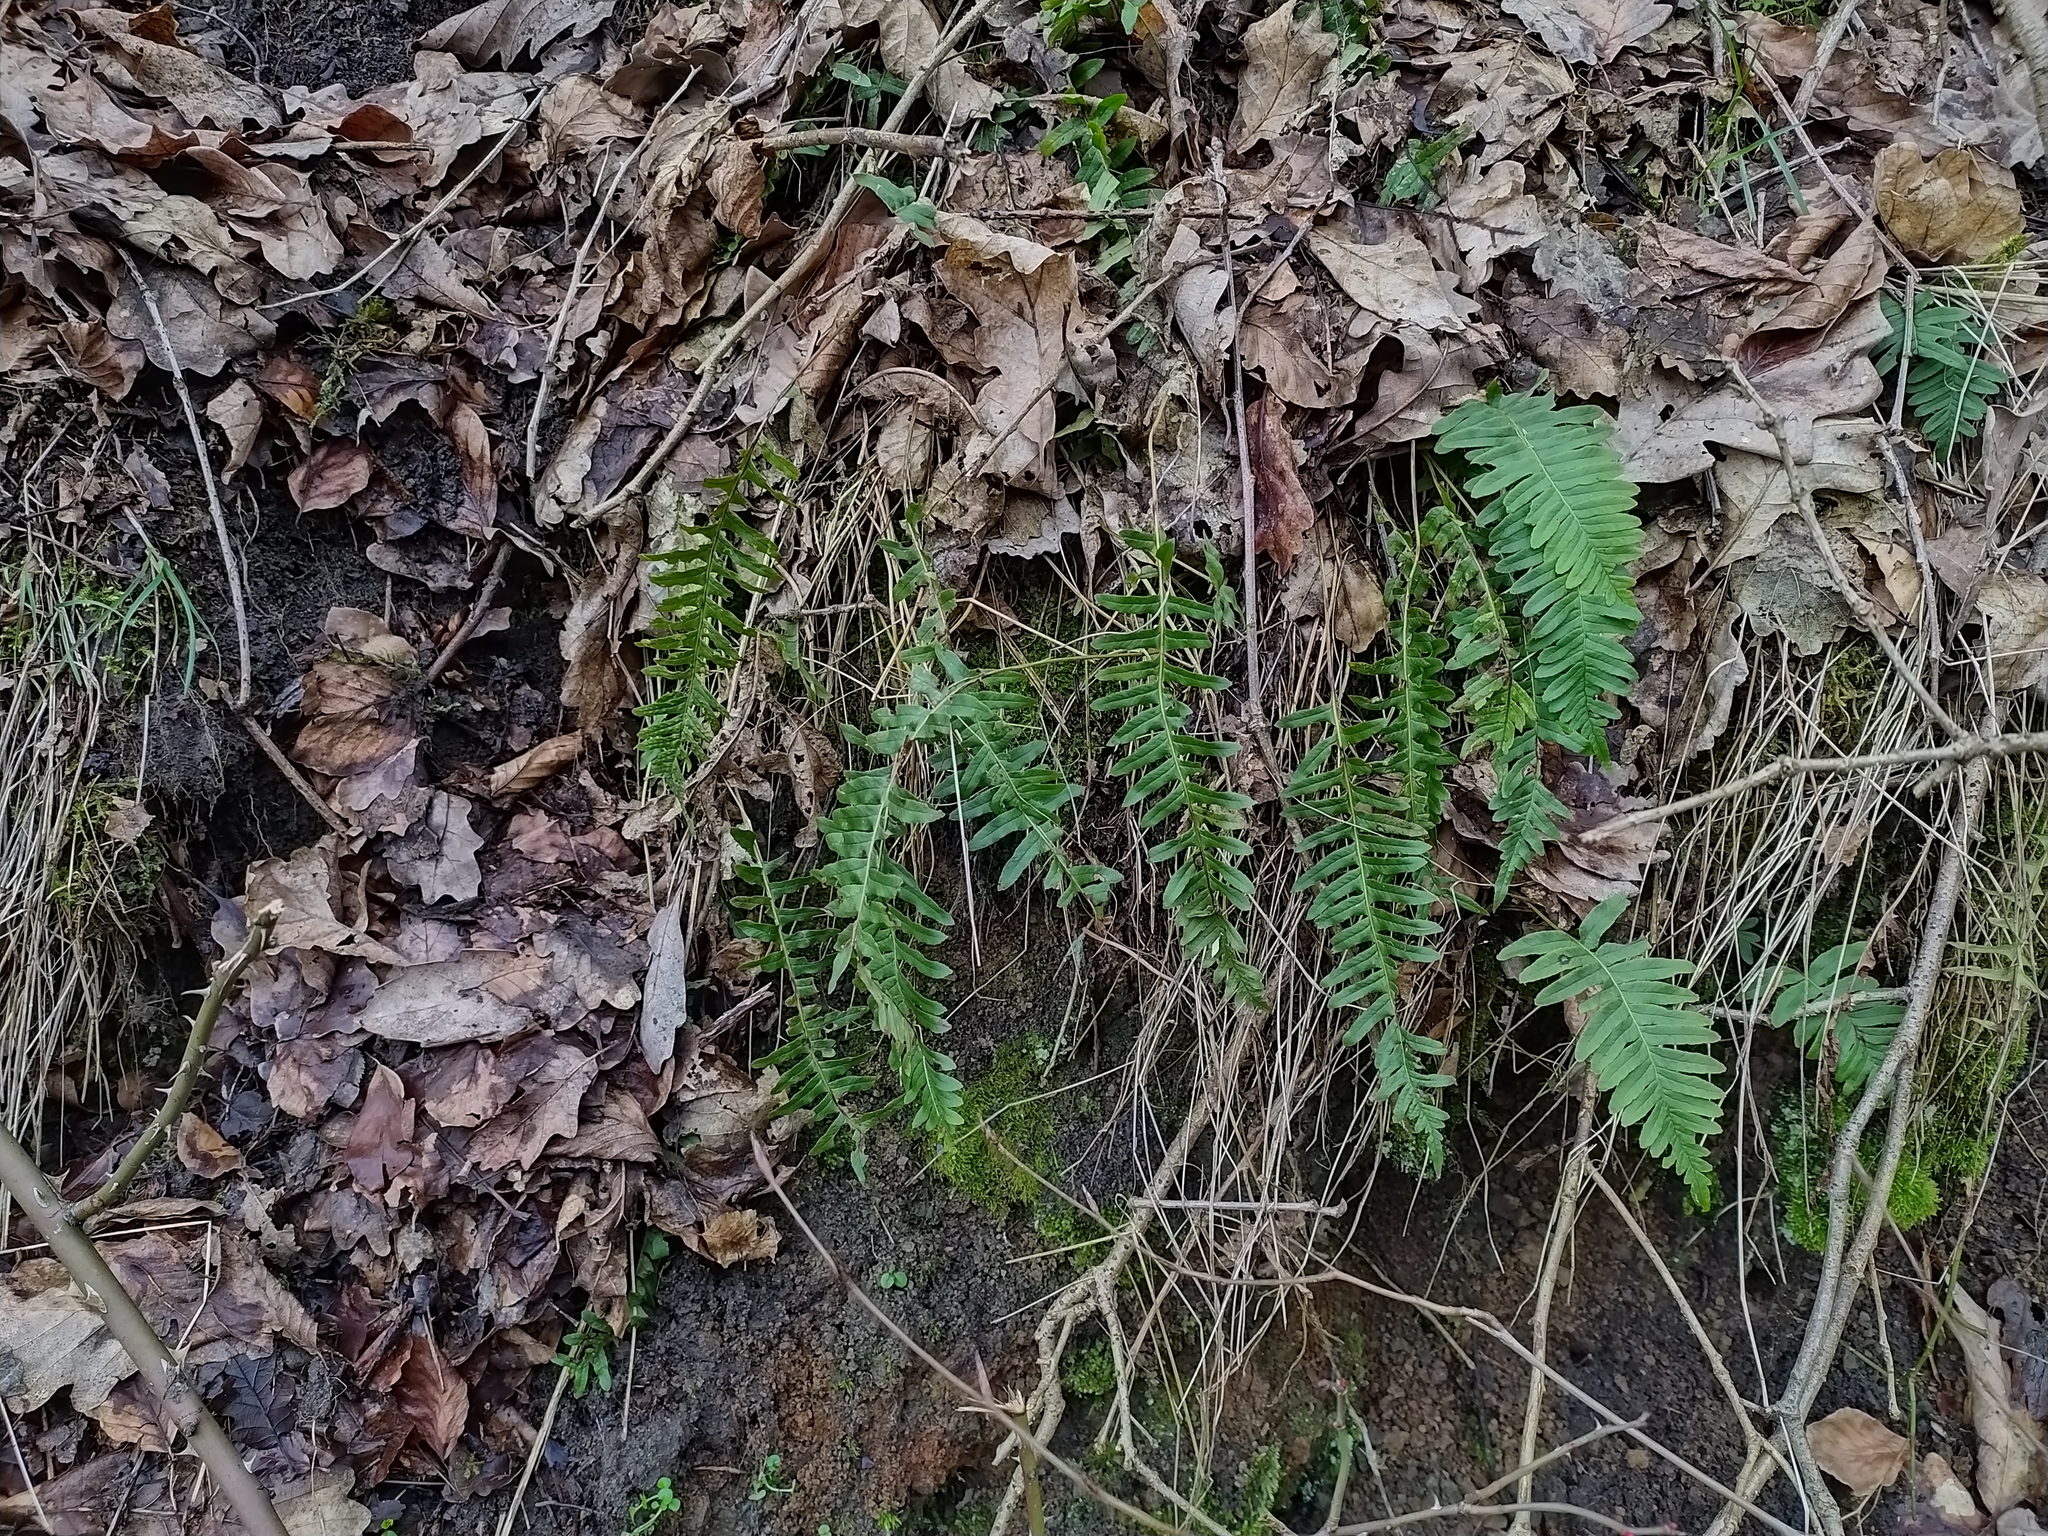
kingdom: Plantae
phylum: Tracheophyta
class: Polypodiopsida
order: Polypodiales
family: Polypodiaceae
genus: Polypodium
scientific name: Polypodium vulgare
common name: Common polypody
